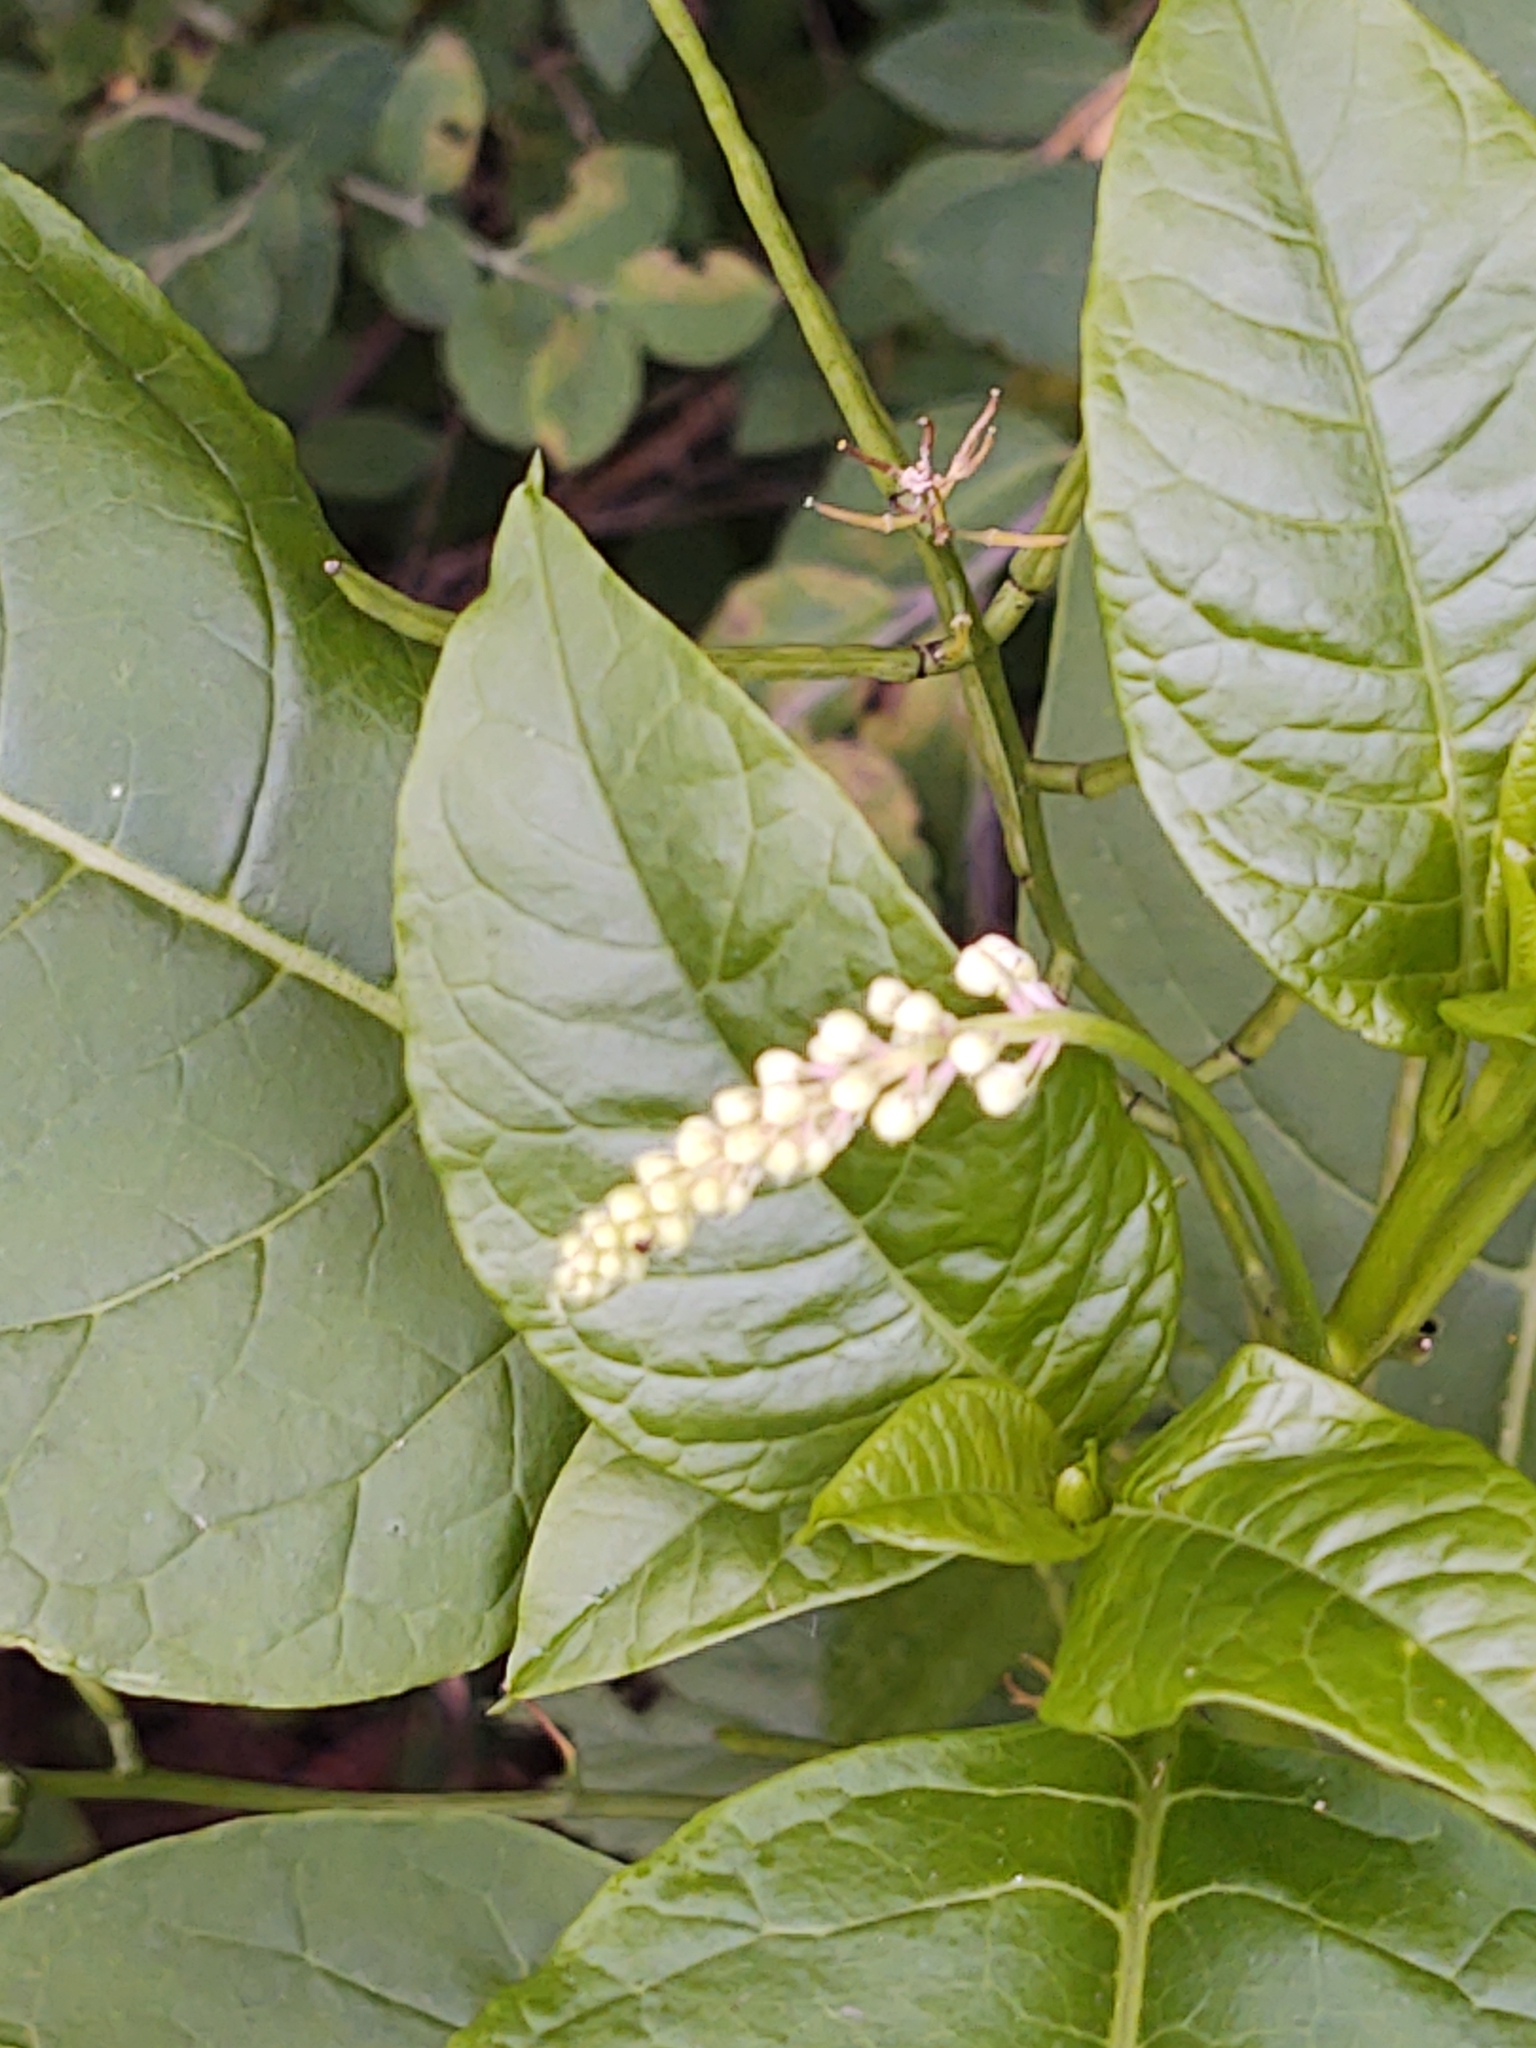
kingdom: Plantae
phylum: Tracheophyta
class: Magnoliopsida
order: Caryophyllales
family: Phytolaccaceae
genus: Phytolacca
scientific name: Phytolacca americana
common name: American pokeweed
